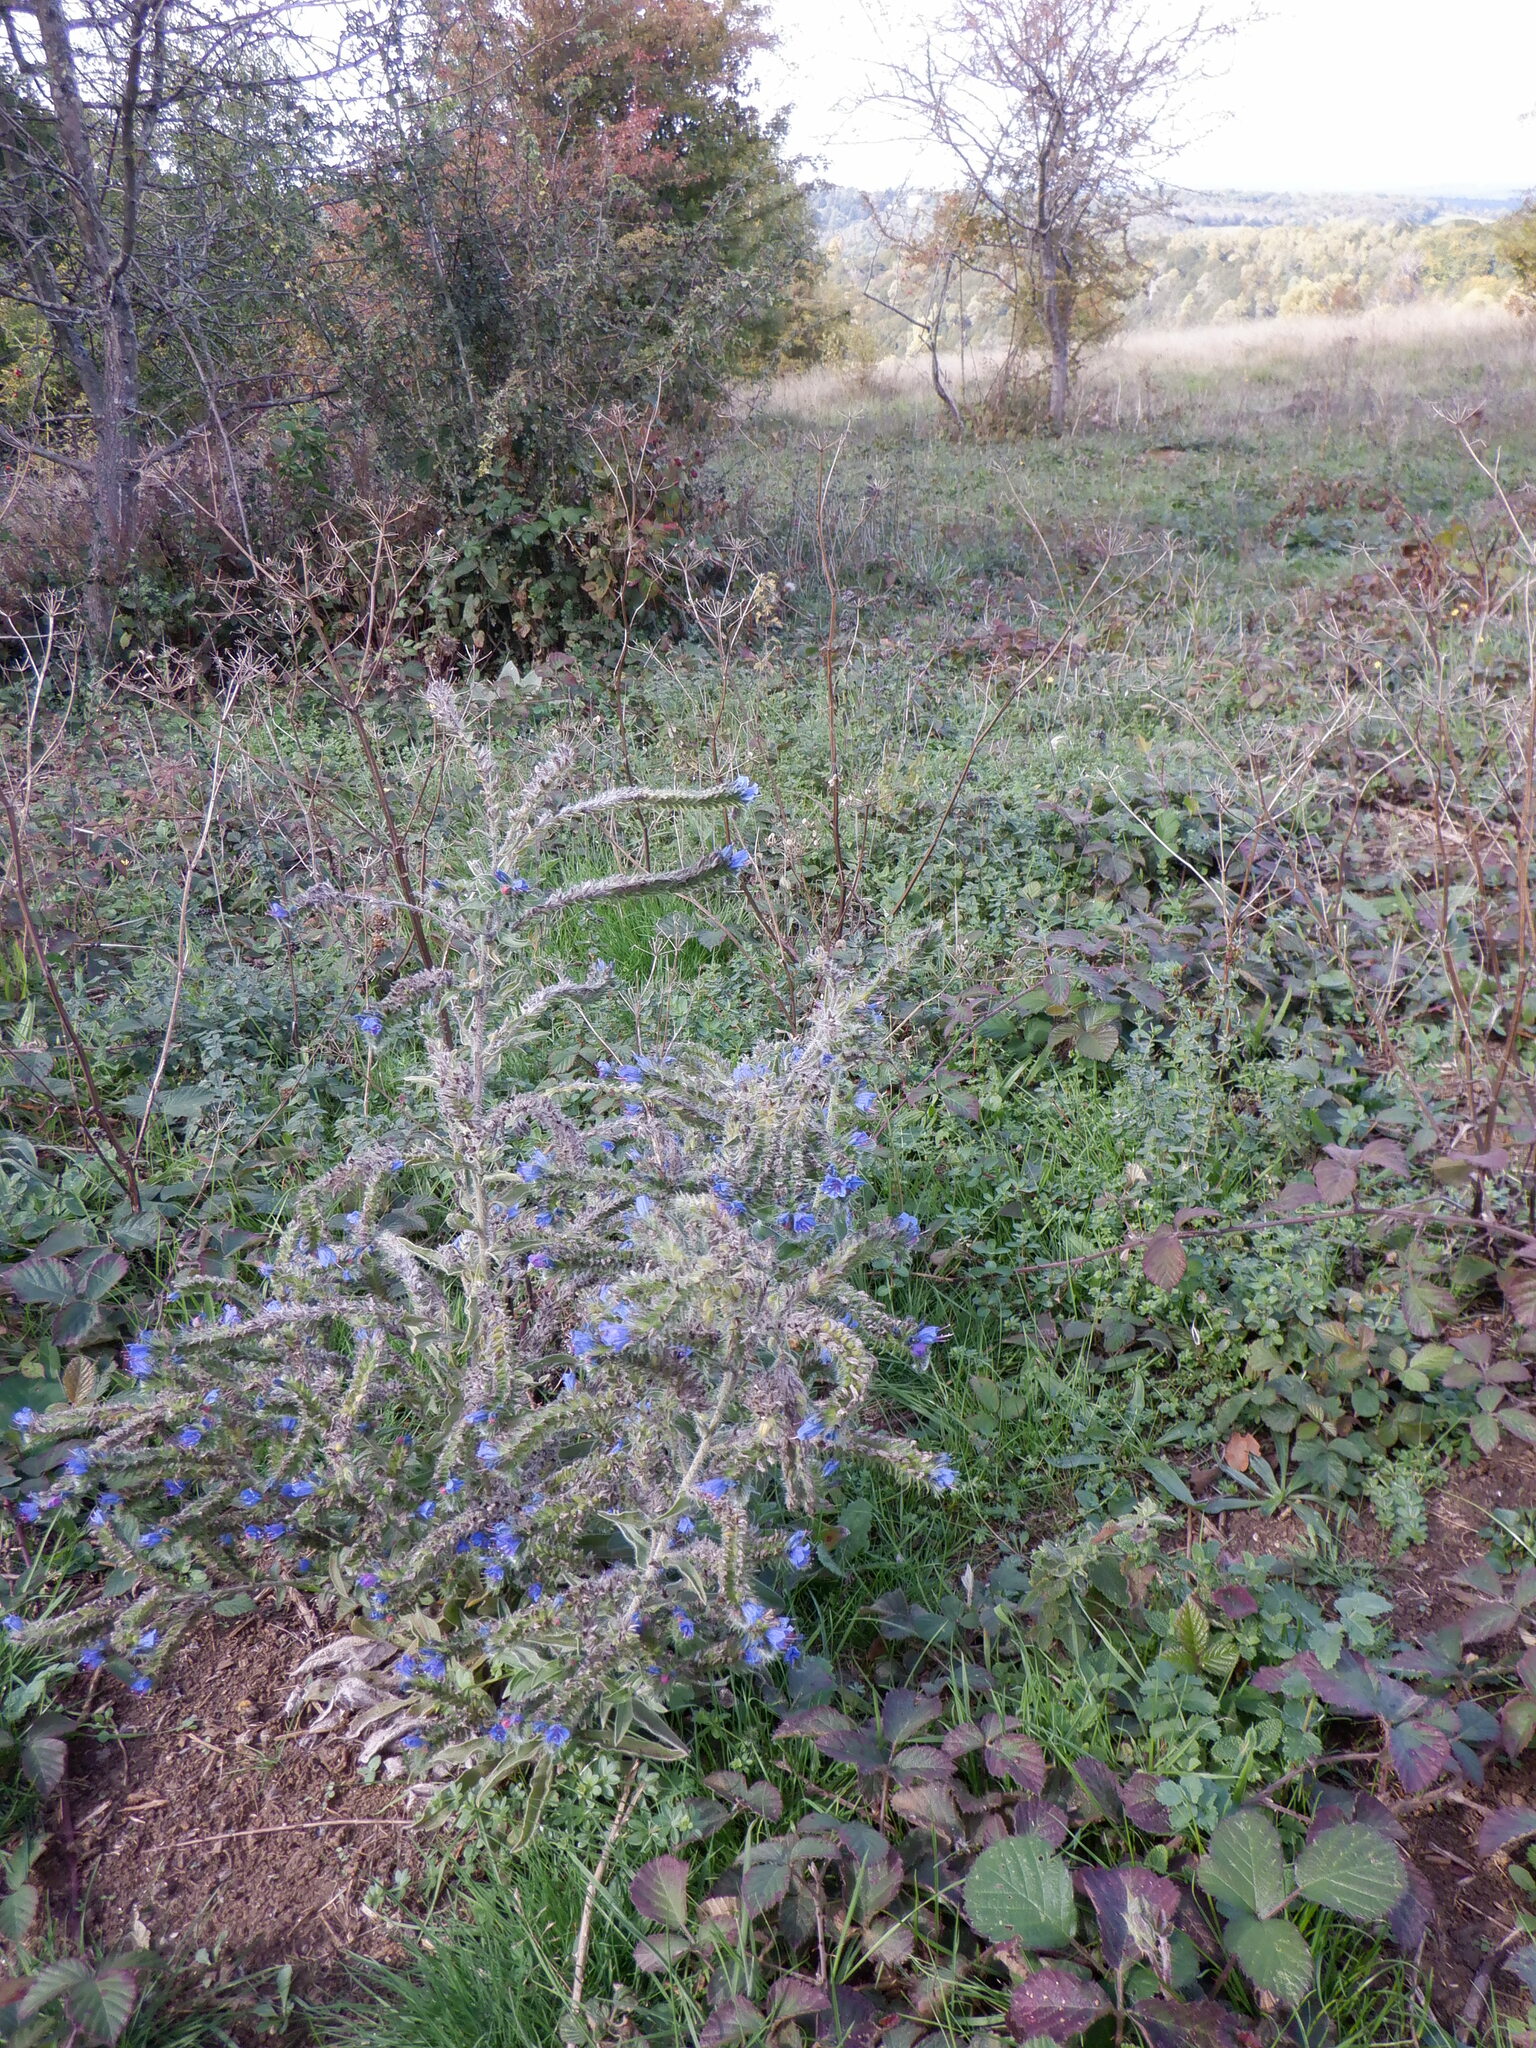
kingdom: Plantae
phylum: Tracheophyta
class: Magnoliopsida
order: Boraginales
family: Boraginaceae
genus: Echium
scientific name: Echium vulgare
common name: Common viper's bugloss
